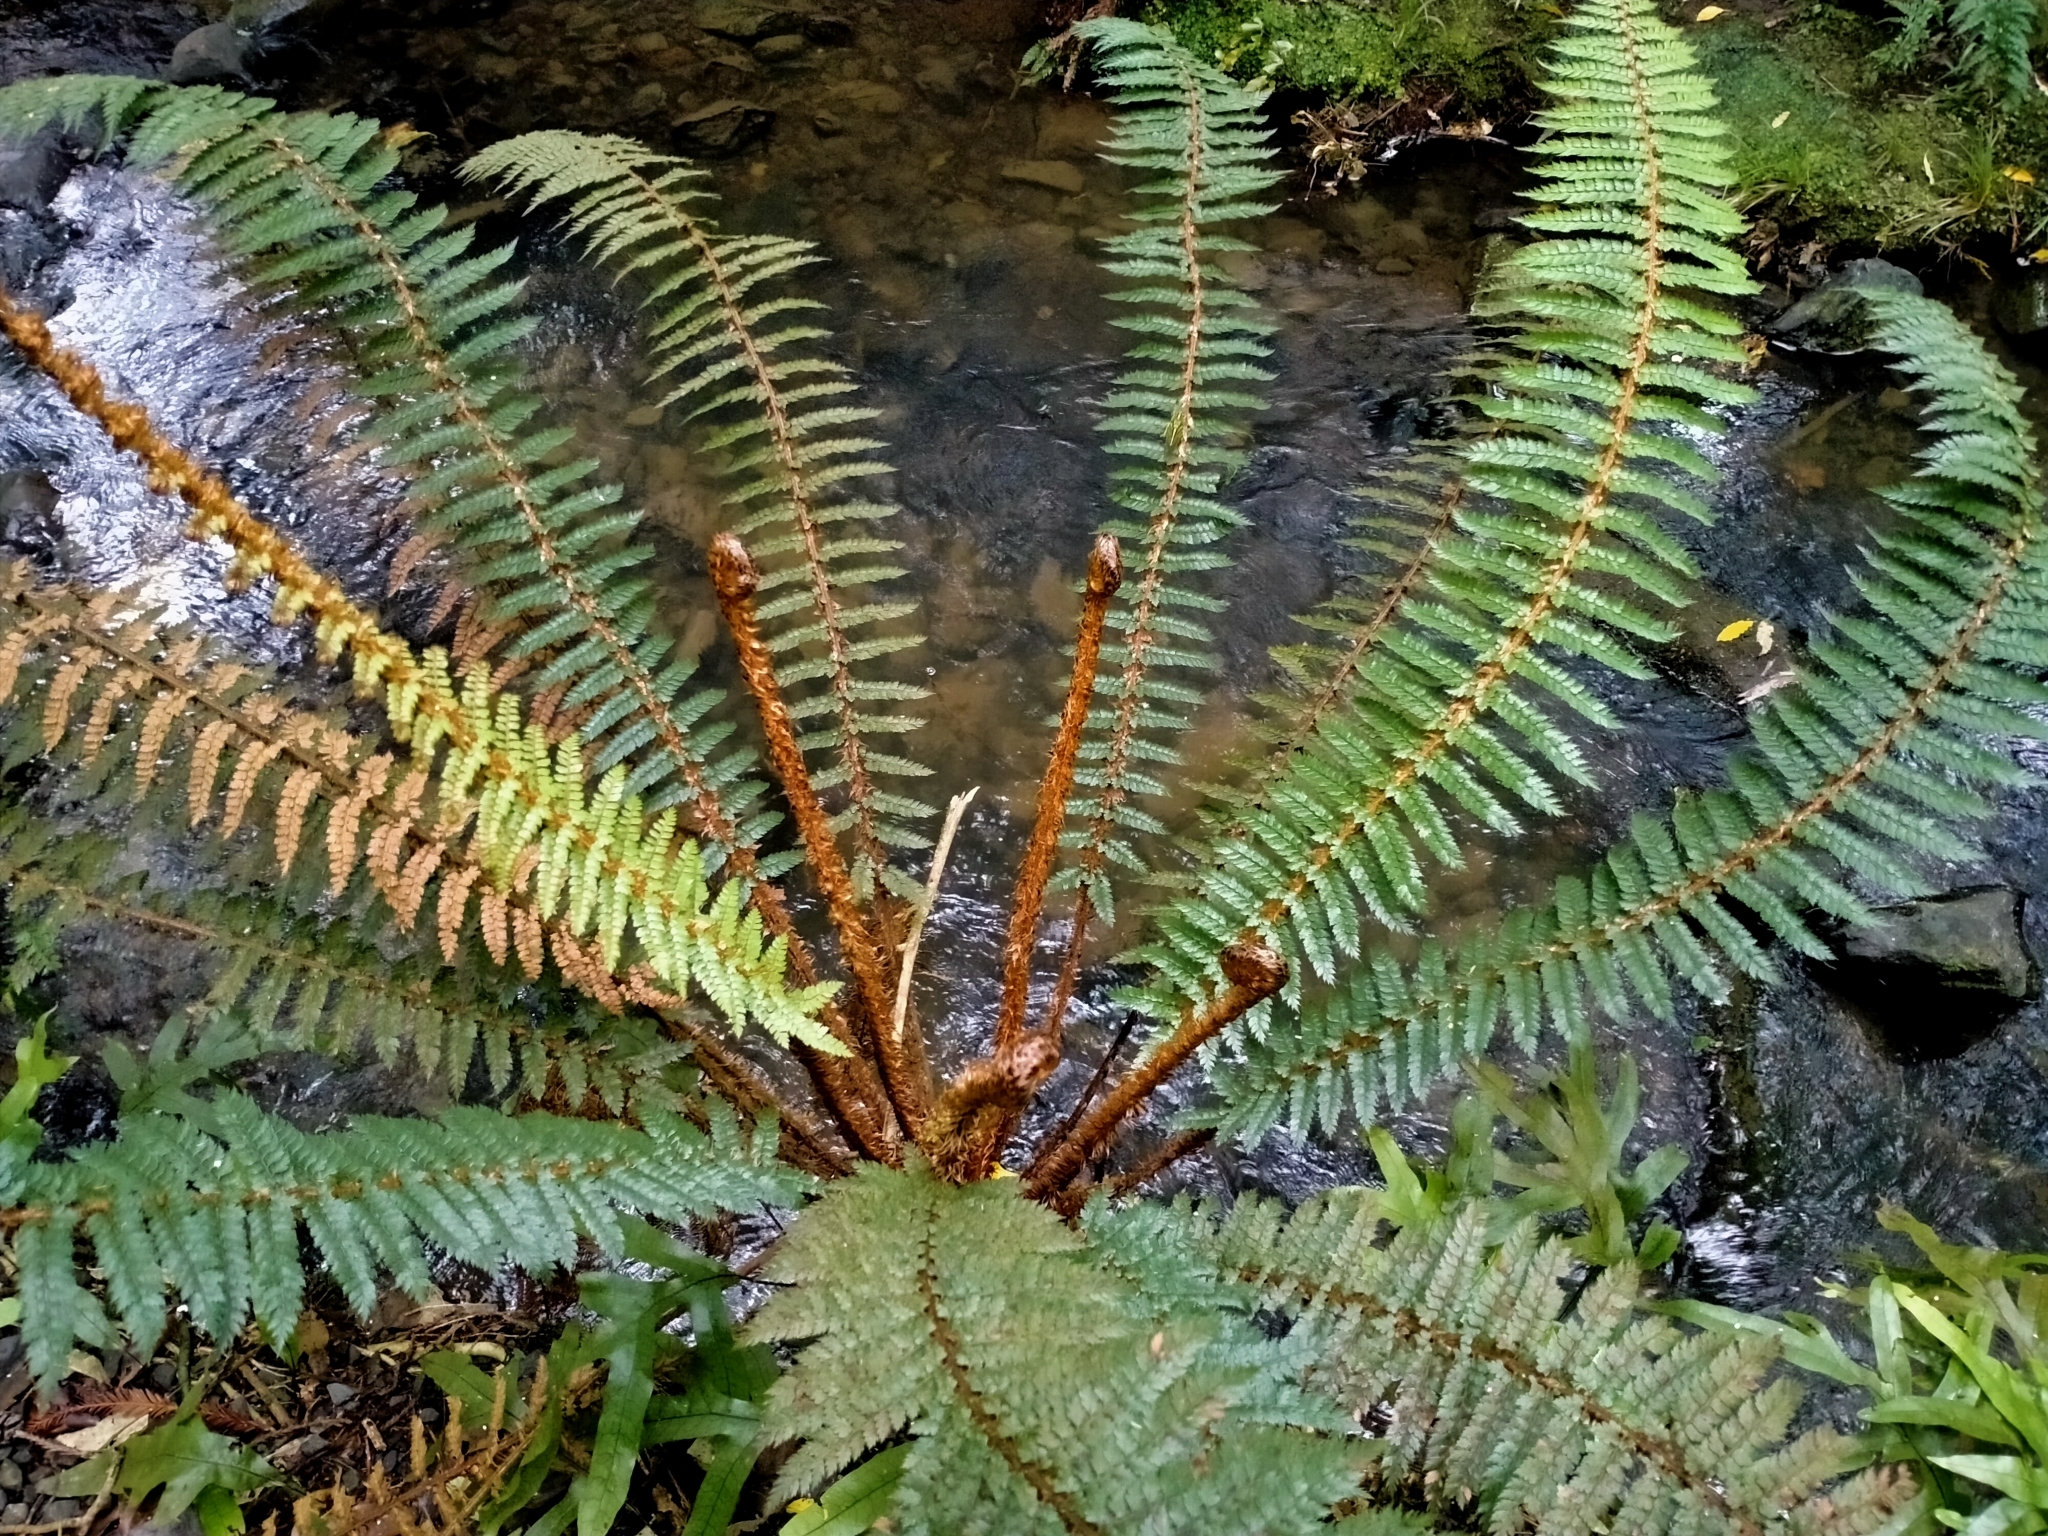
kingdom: Plantae
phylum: Tracheophyta
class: Polypodiopsida
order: Polypodiales
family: Dryopteridaceae
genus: Polystichum
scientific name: Polystichum vestitum
